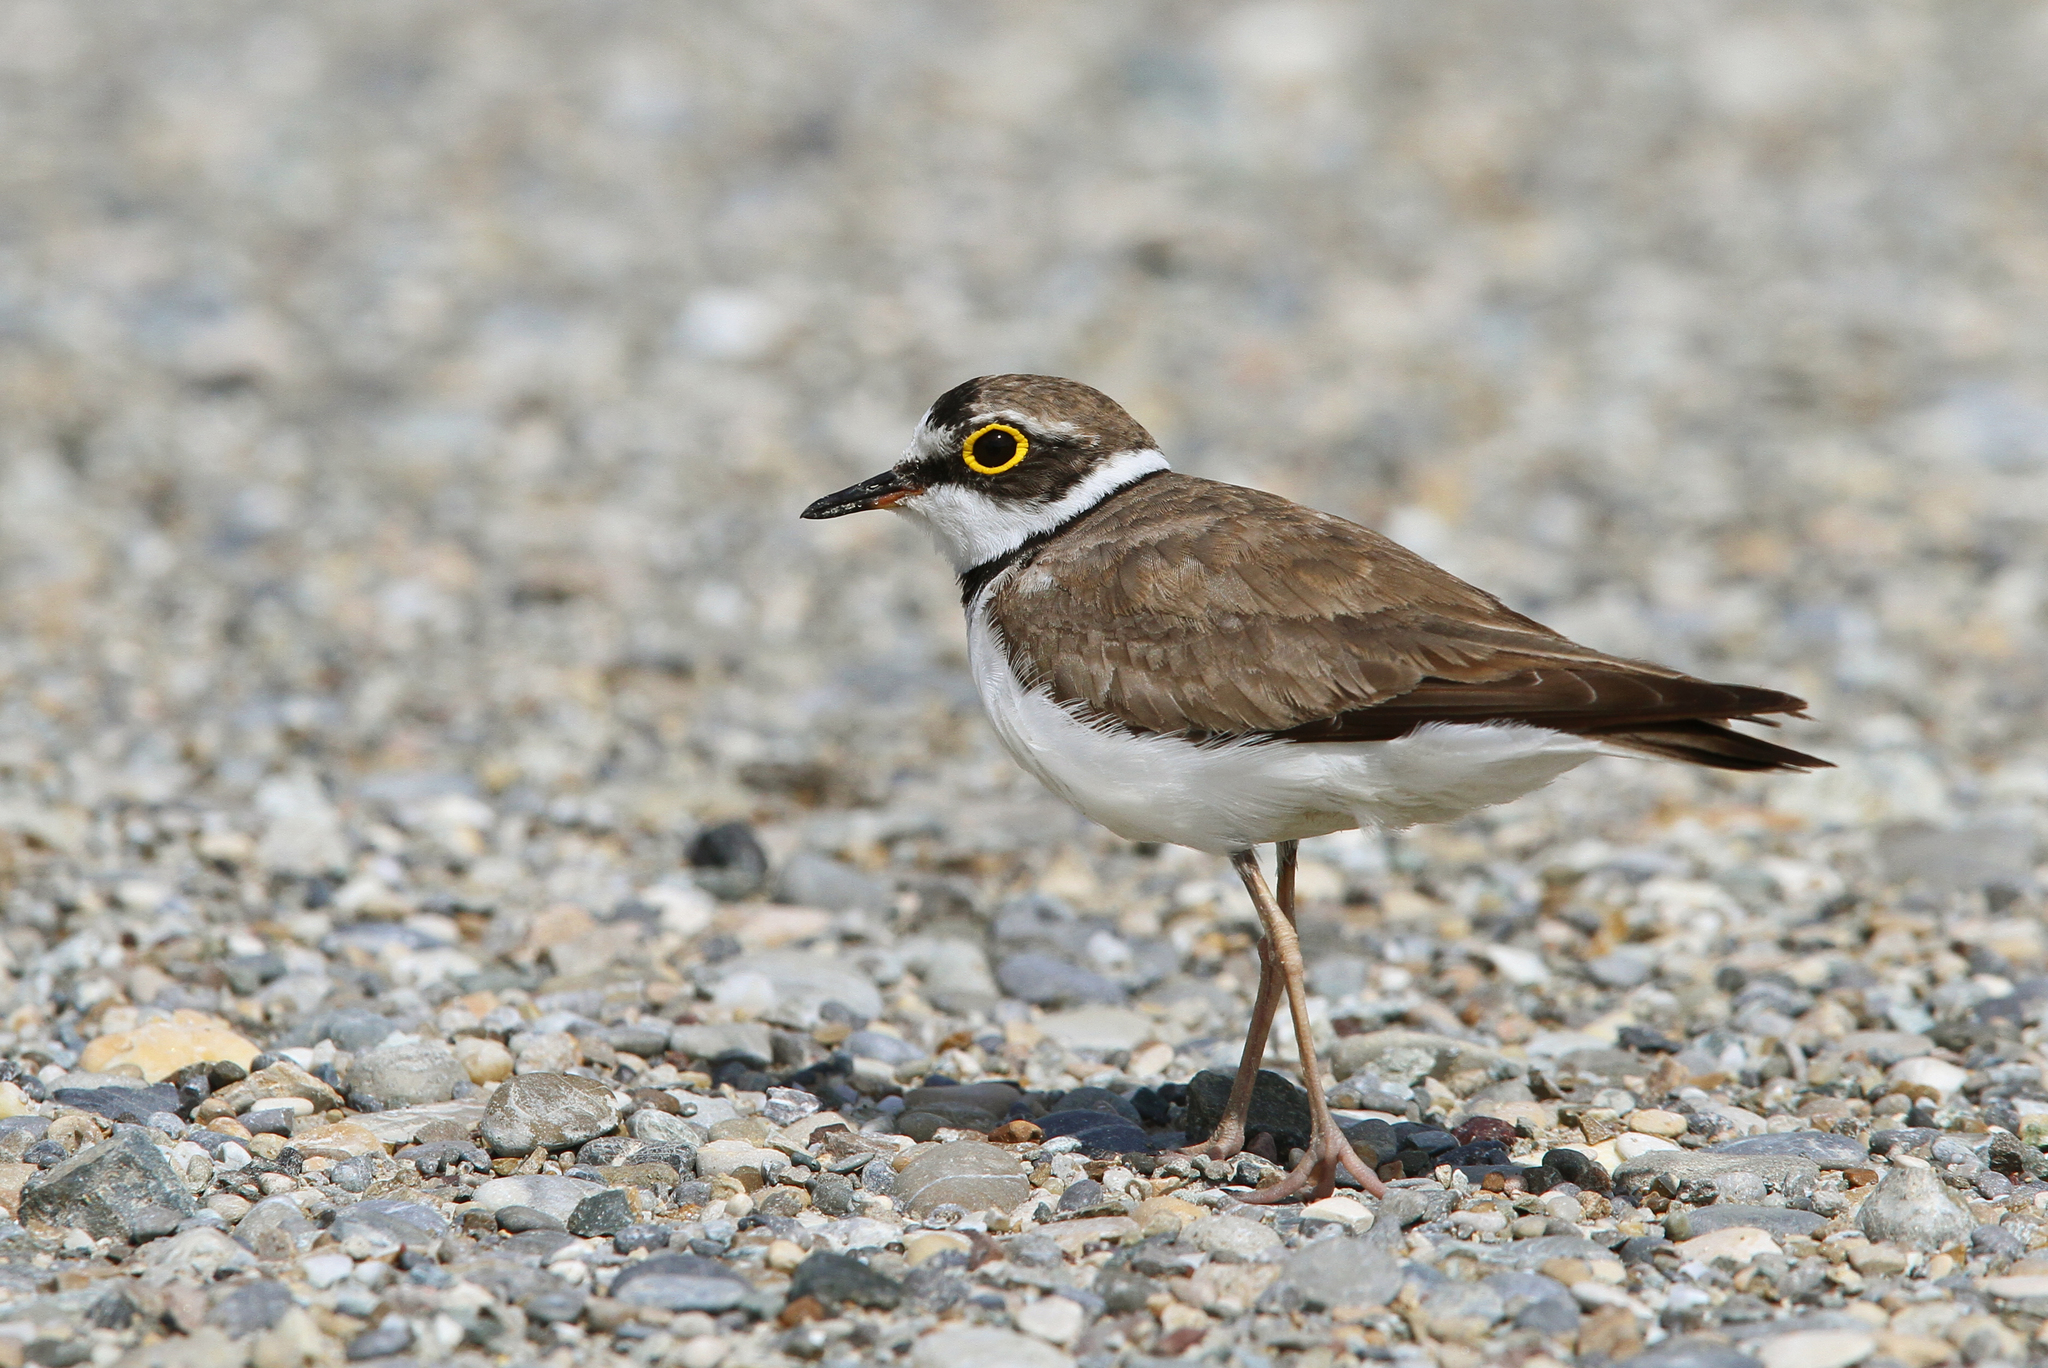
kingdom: Animalia
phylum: Chordata
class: Aves
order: Charadriiformes
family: Charadriidae
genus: Charadrius
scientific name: Charadrius dubius
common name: Little ringed plover
